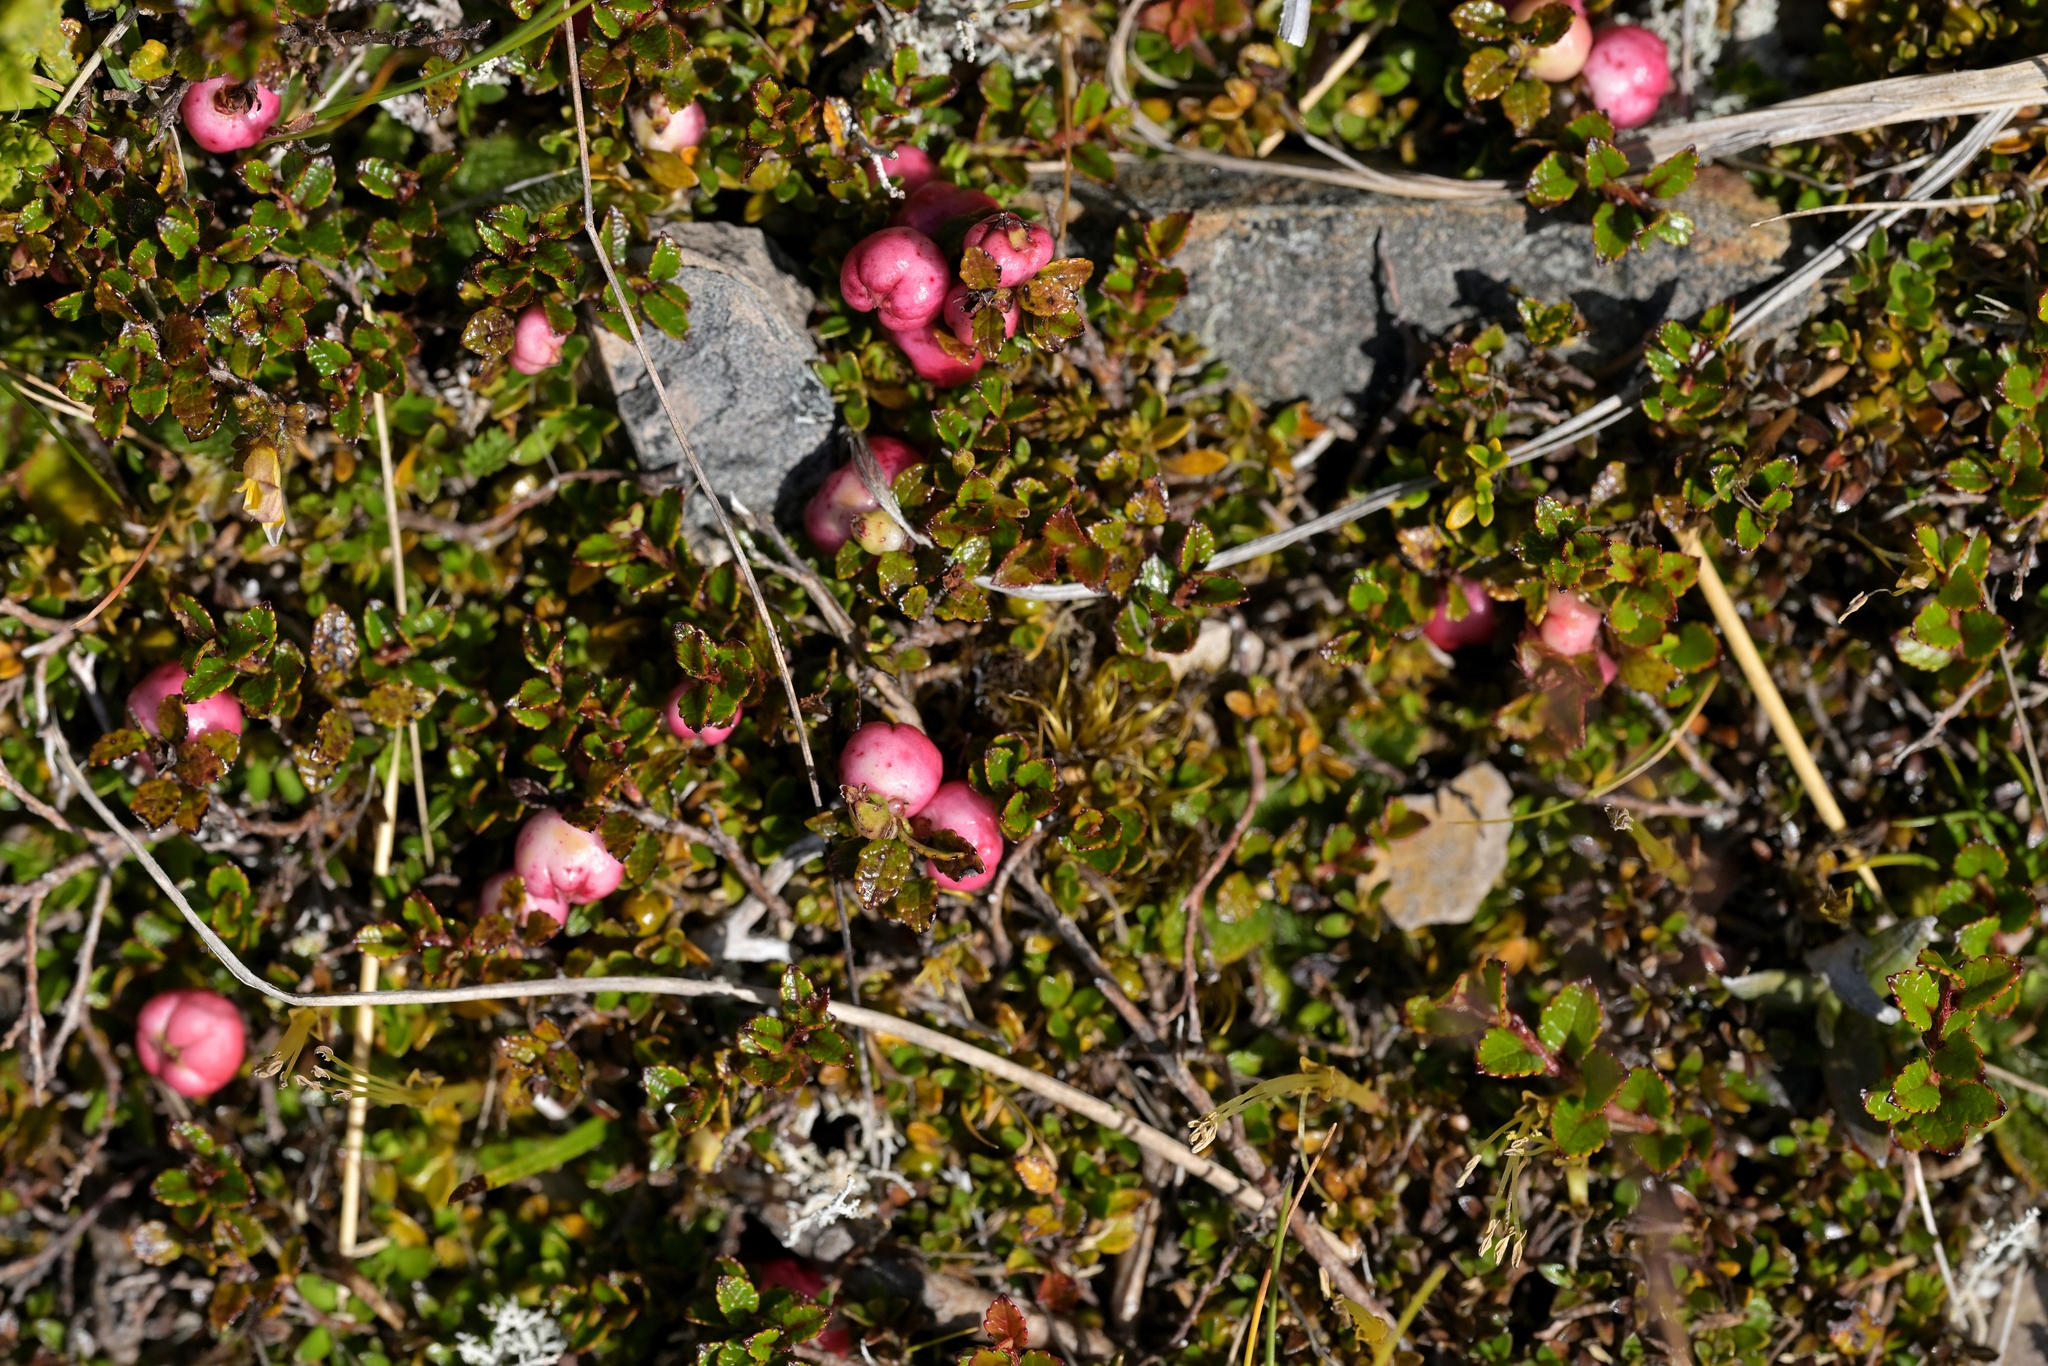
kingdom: Plantae
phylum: Tracheophyta
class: Magnoliopsida
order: Ericales
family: Ericaceae
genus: Gaultheria
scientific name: Gaultheria depressa
